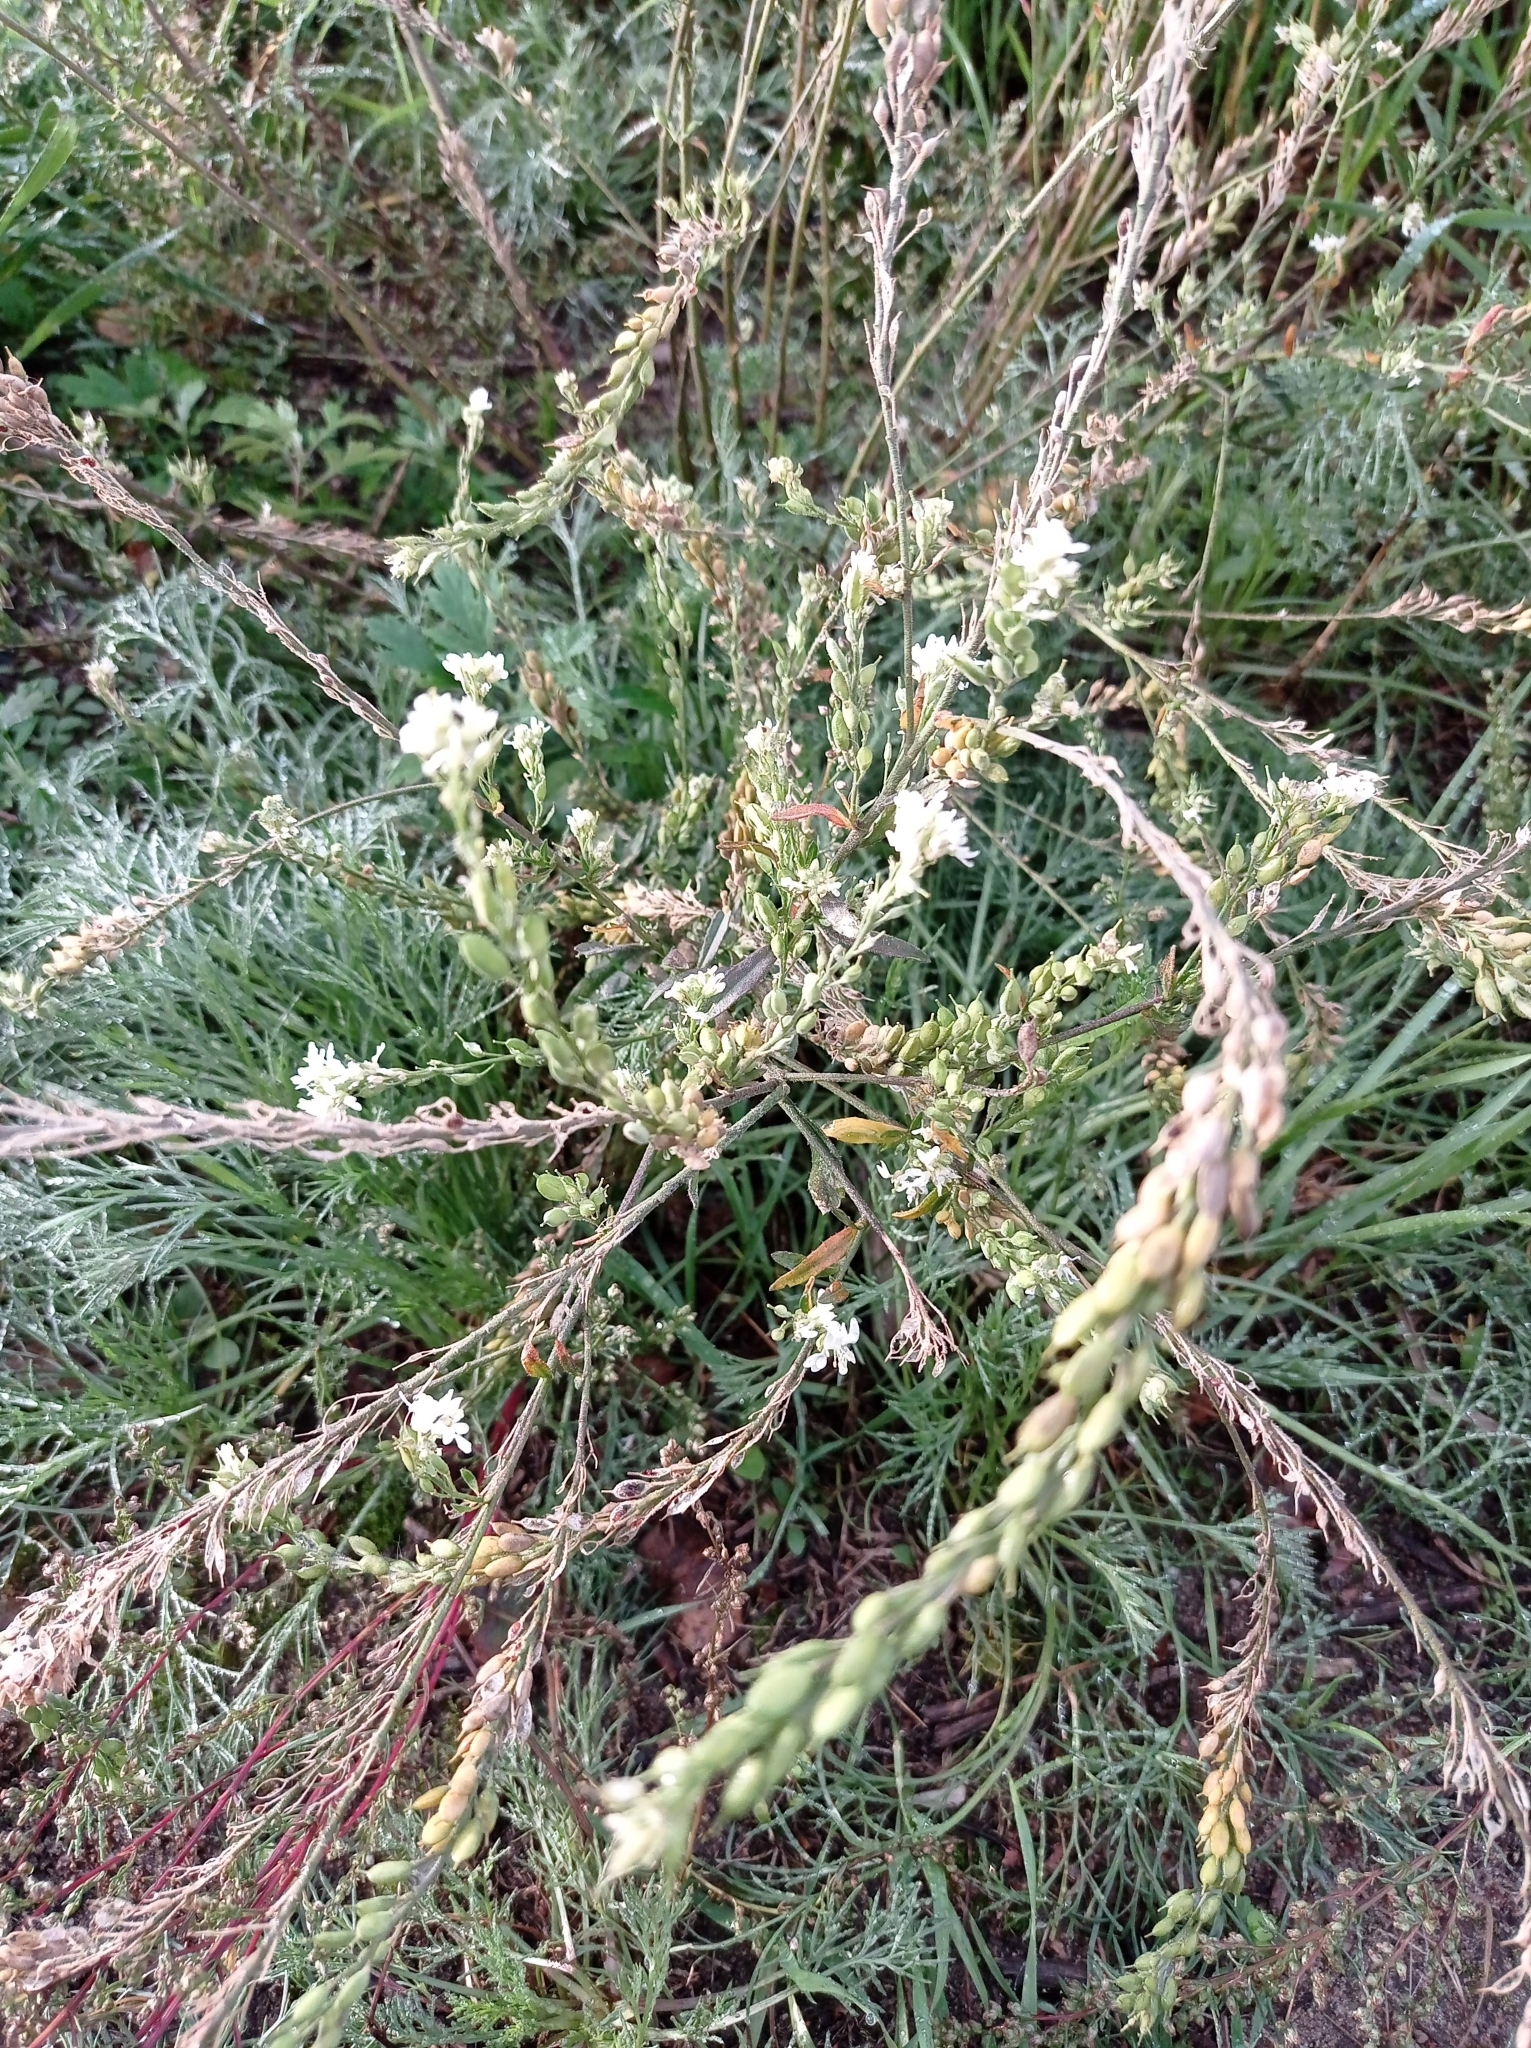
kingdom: Plantae
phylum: Tracheophyta
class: Magnoliopsida
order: Brassicales
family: Brassicaceae
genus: Berteroa
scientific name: Berteroa incana
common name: Hoary alison
